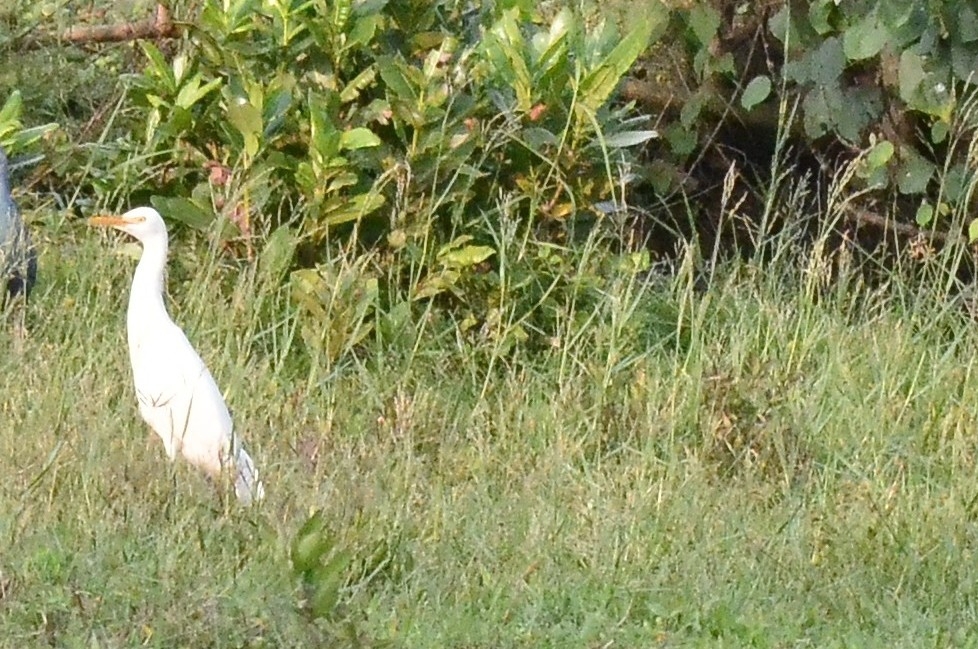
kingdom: Animalia
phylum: Chordata
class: Aves
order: Pelecaniformes
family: Ardeidae
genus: Bubulcus
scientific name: Bubulcus coromandus
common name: Eastern cattle egret
